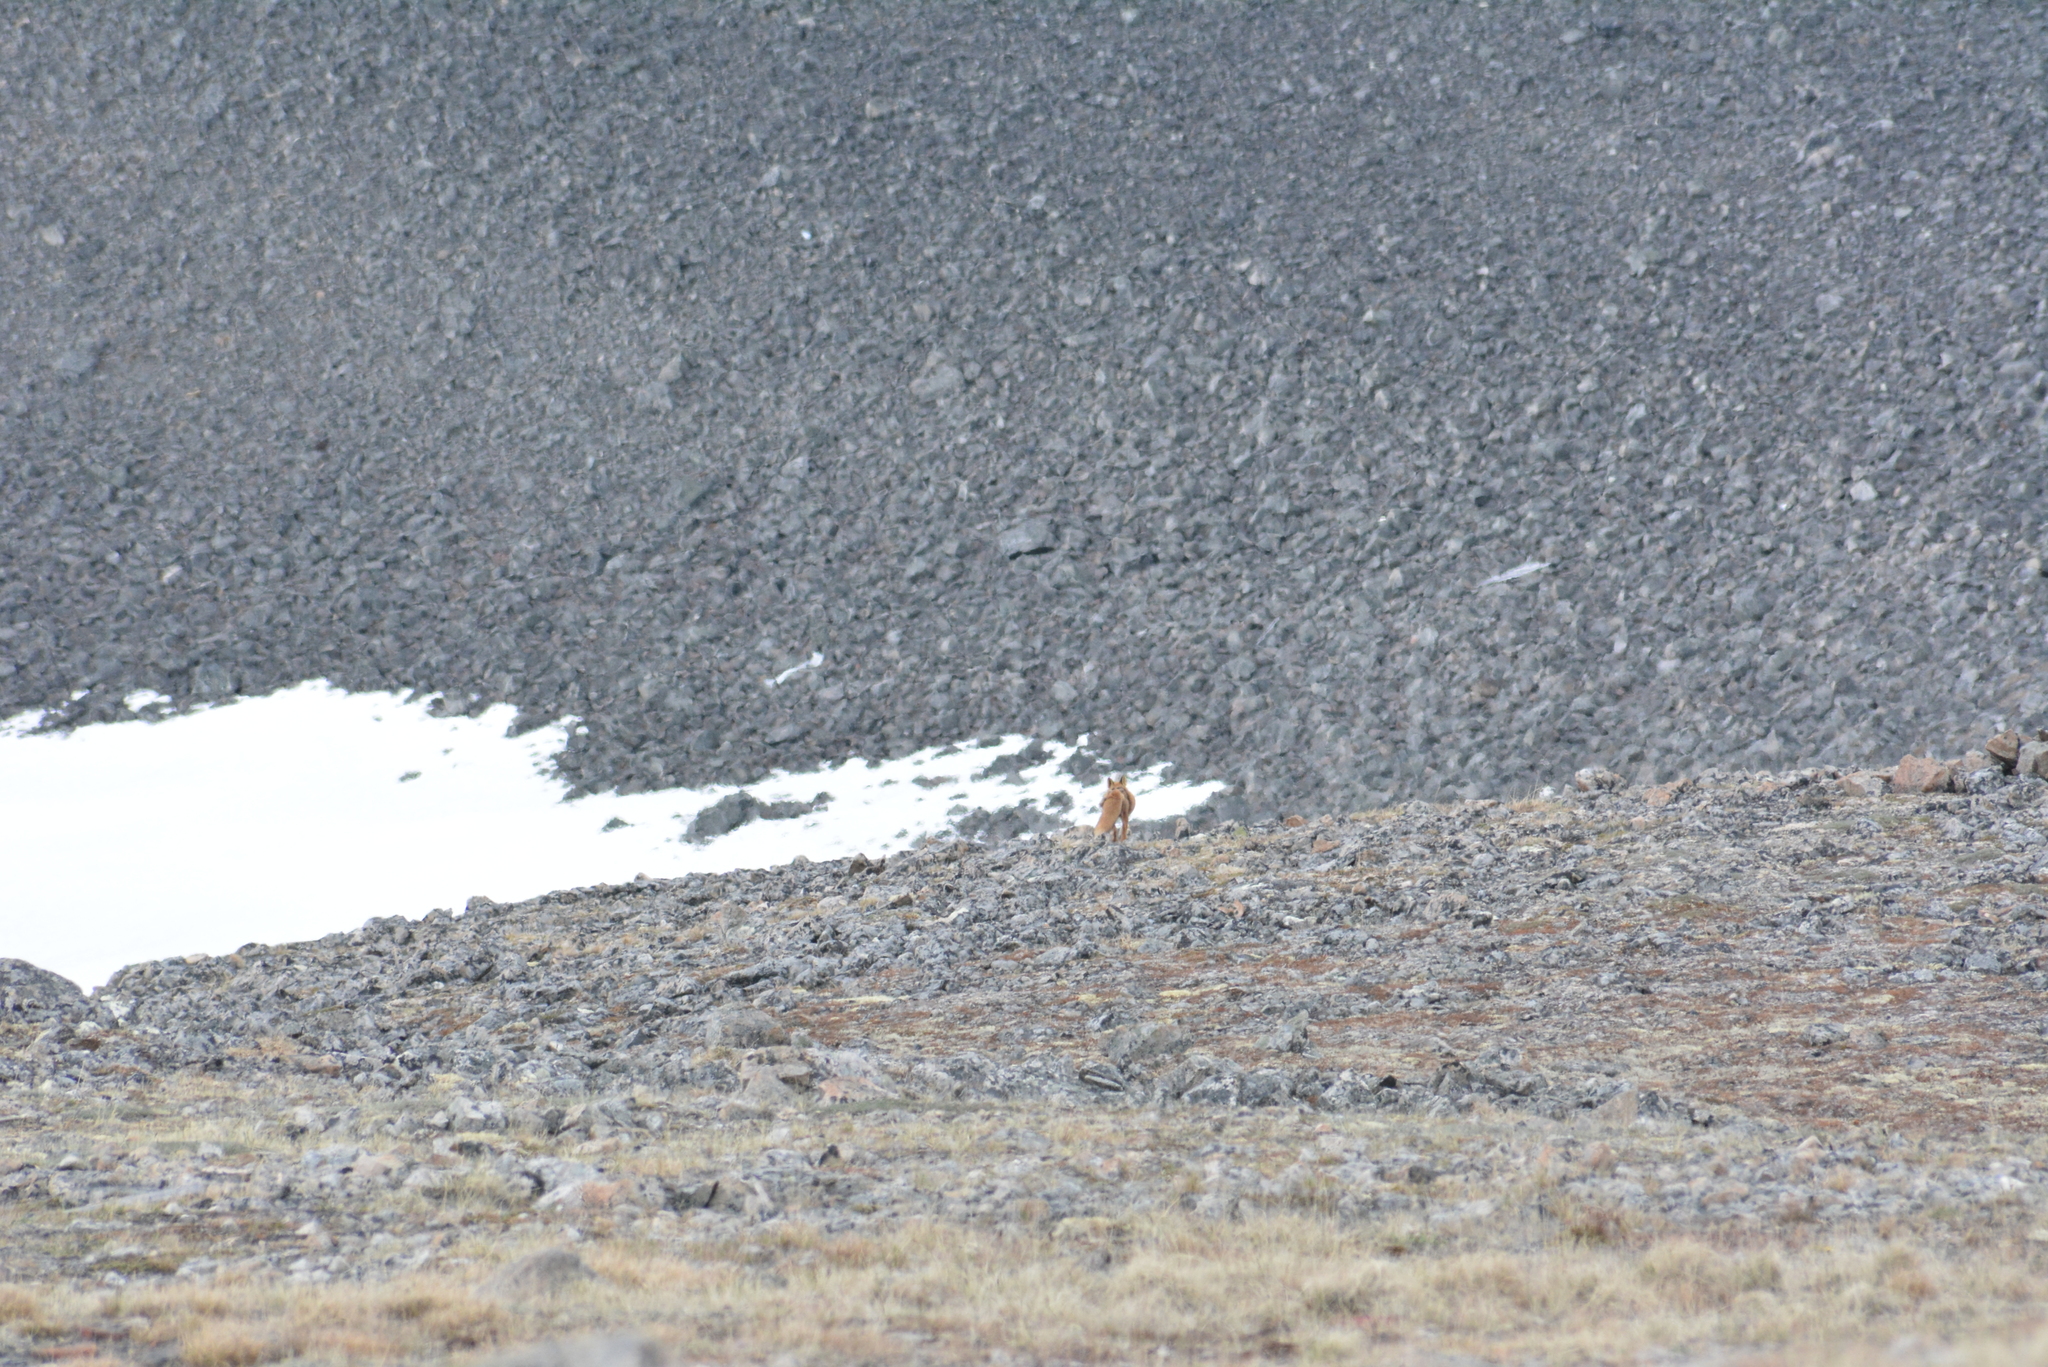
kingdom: Animalia
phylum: Chordata
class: Mammalia
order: Carnivora
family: Canidae
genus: Vulpes
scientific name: Vulpes vulpes
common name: Red fox
